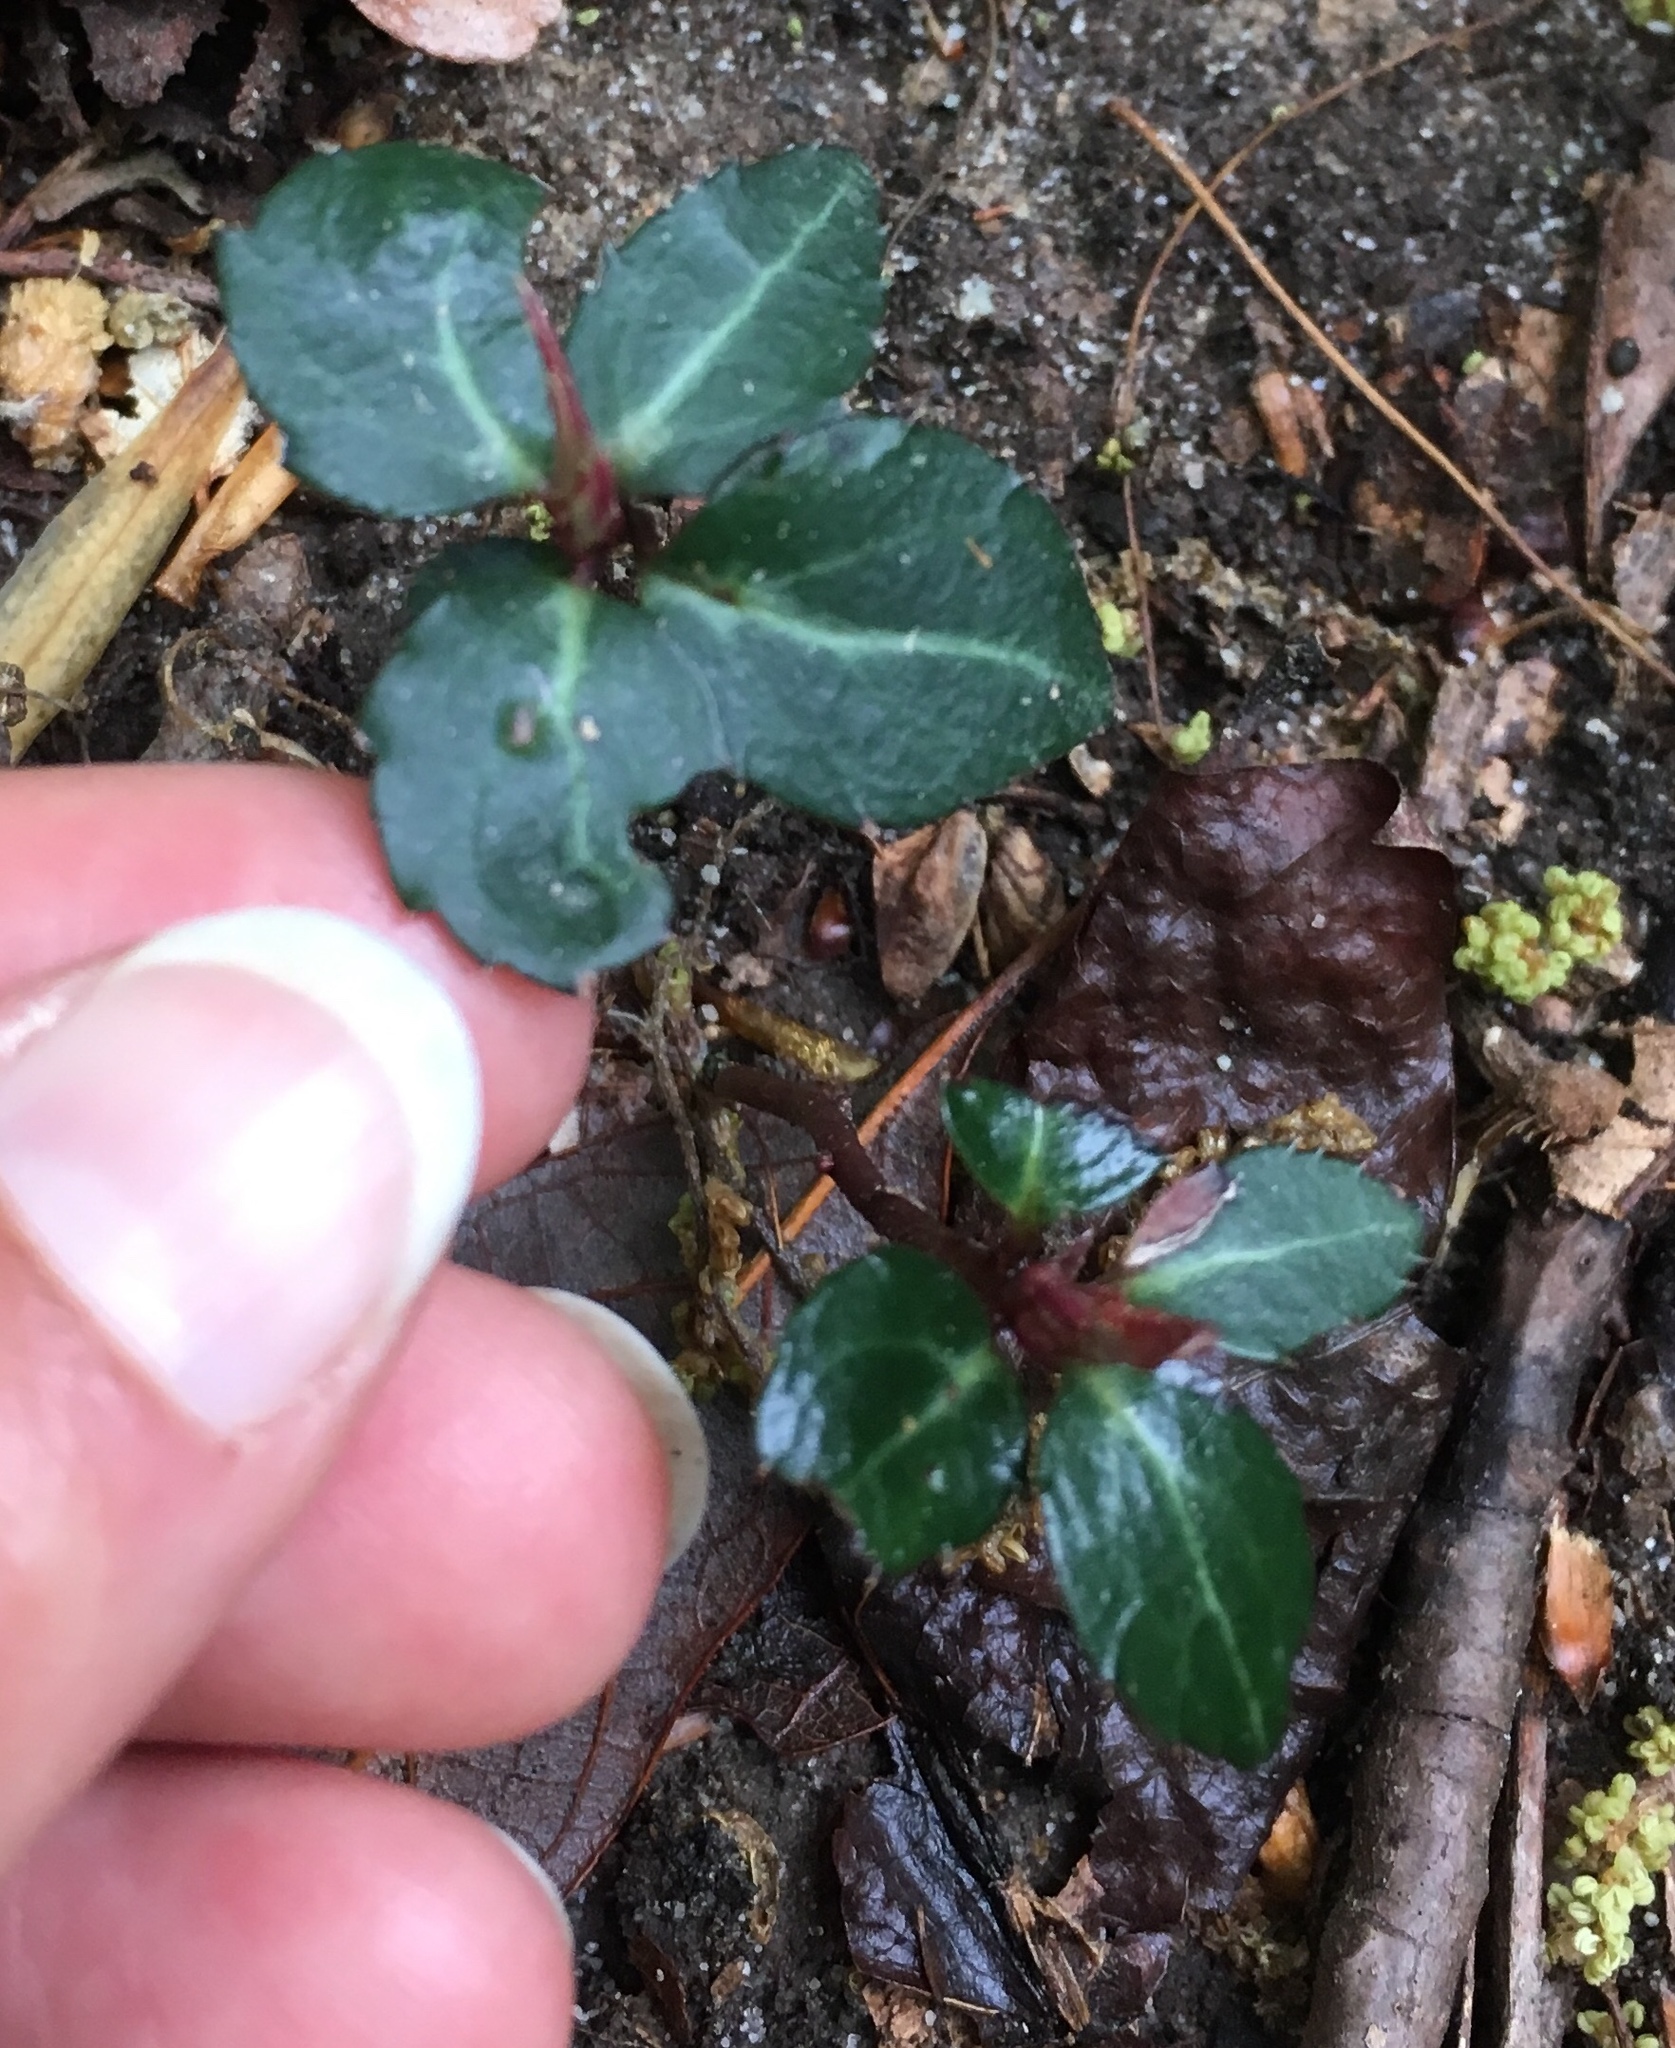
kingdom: Plantae
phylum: Tracheophyta
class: Magnoliopsida
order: Ericales
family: Ericaceae
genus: Chimaphila
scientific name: Chimaphila maculata
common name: Spotted pipsissewa
